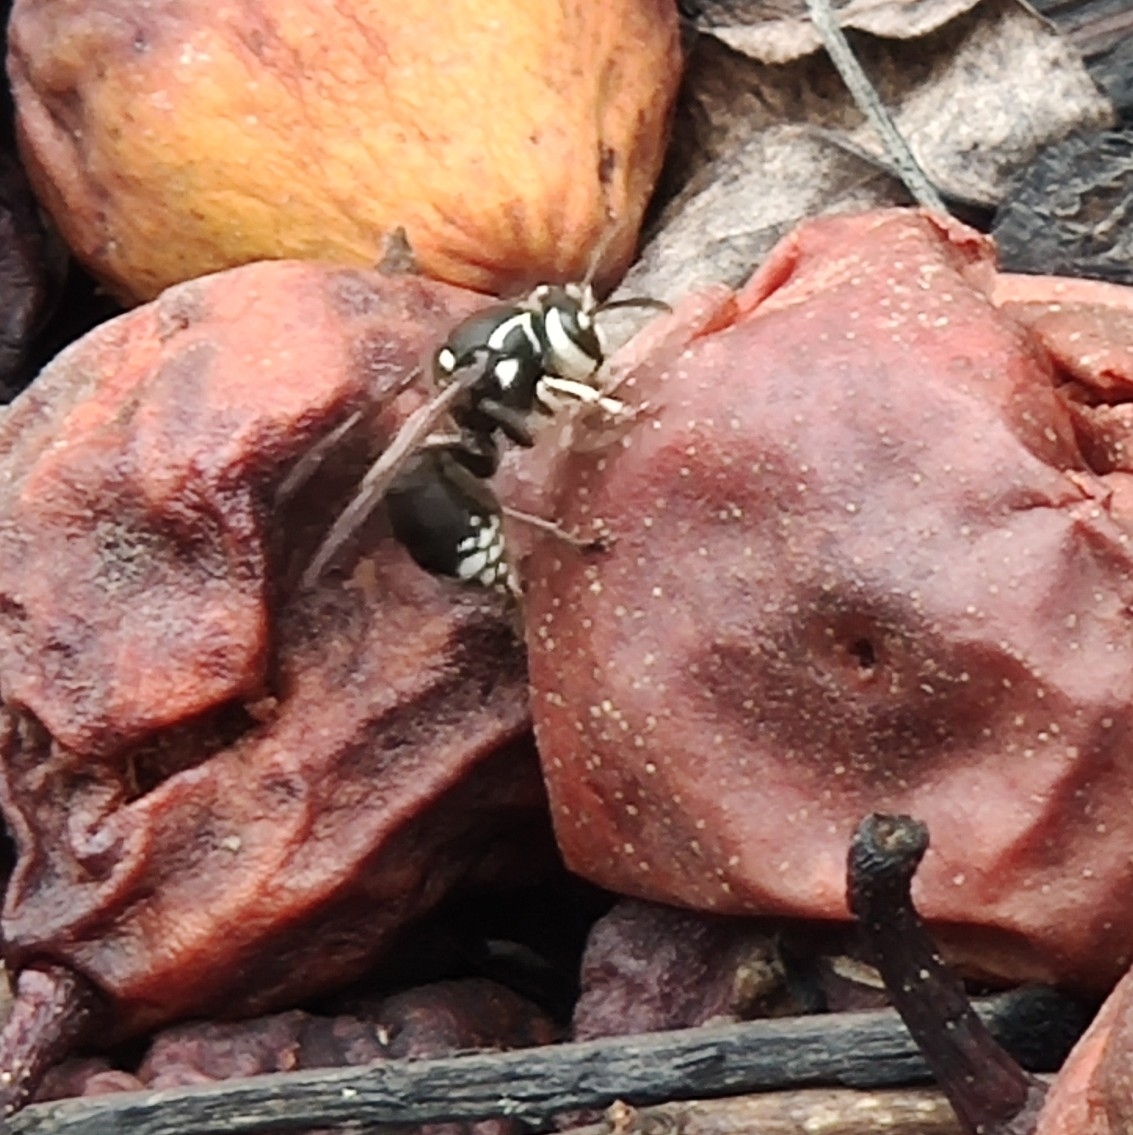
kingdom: Animalia
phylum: Arthropoda
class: Insecta
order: Hymenoptera
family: Vespidae
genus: Dolichovespula
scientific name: Dolichovespula maculata
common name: Bald-faced hornet
